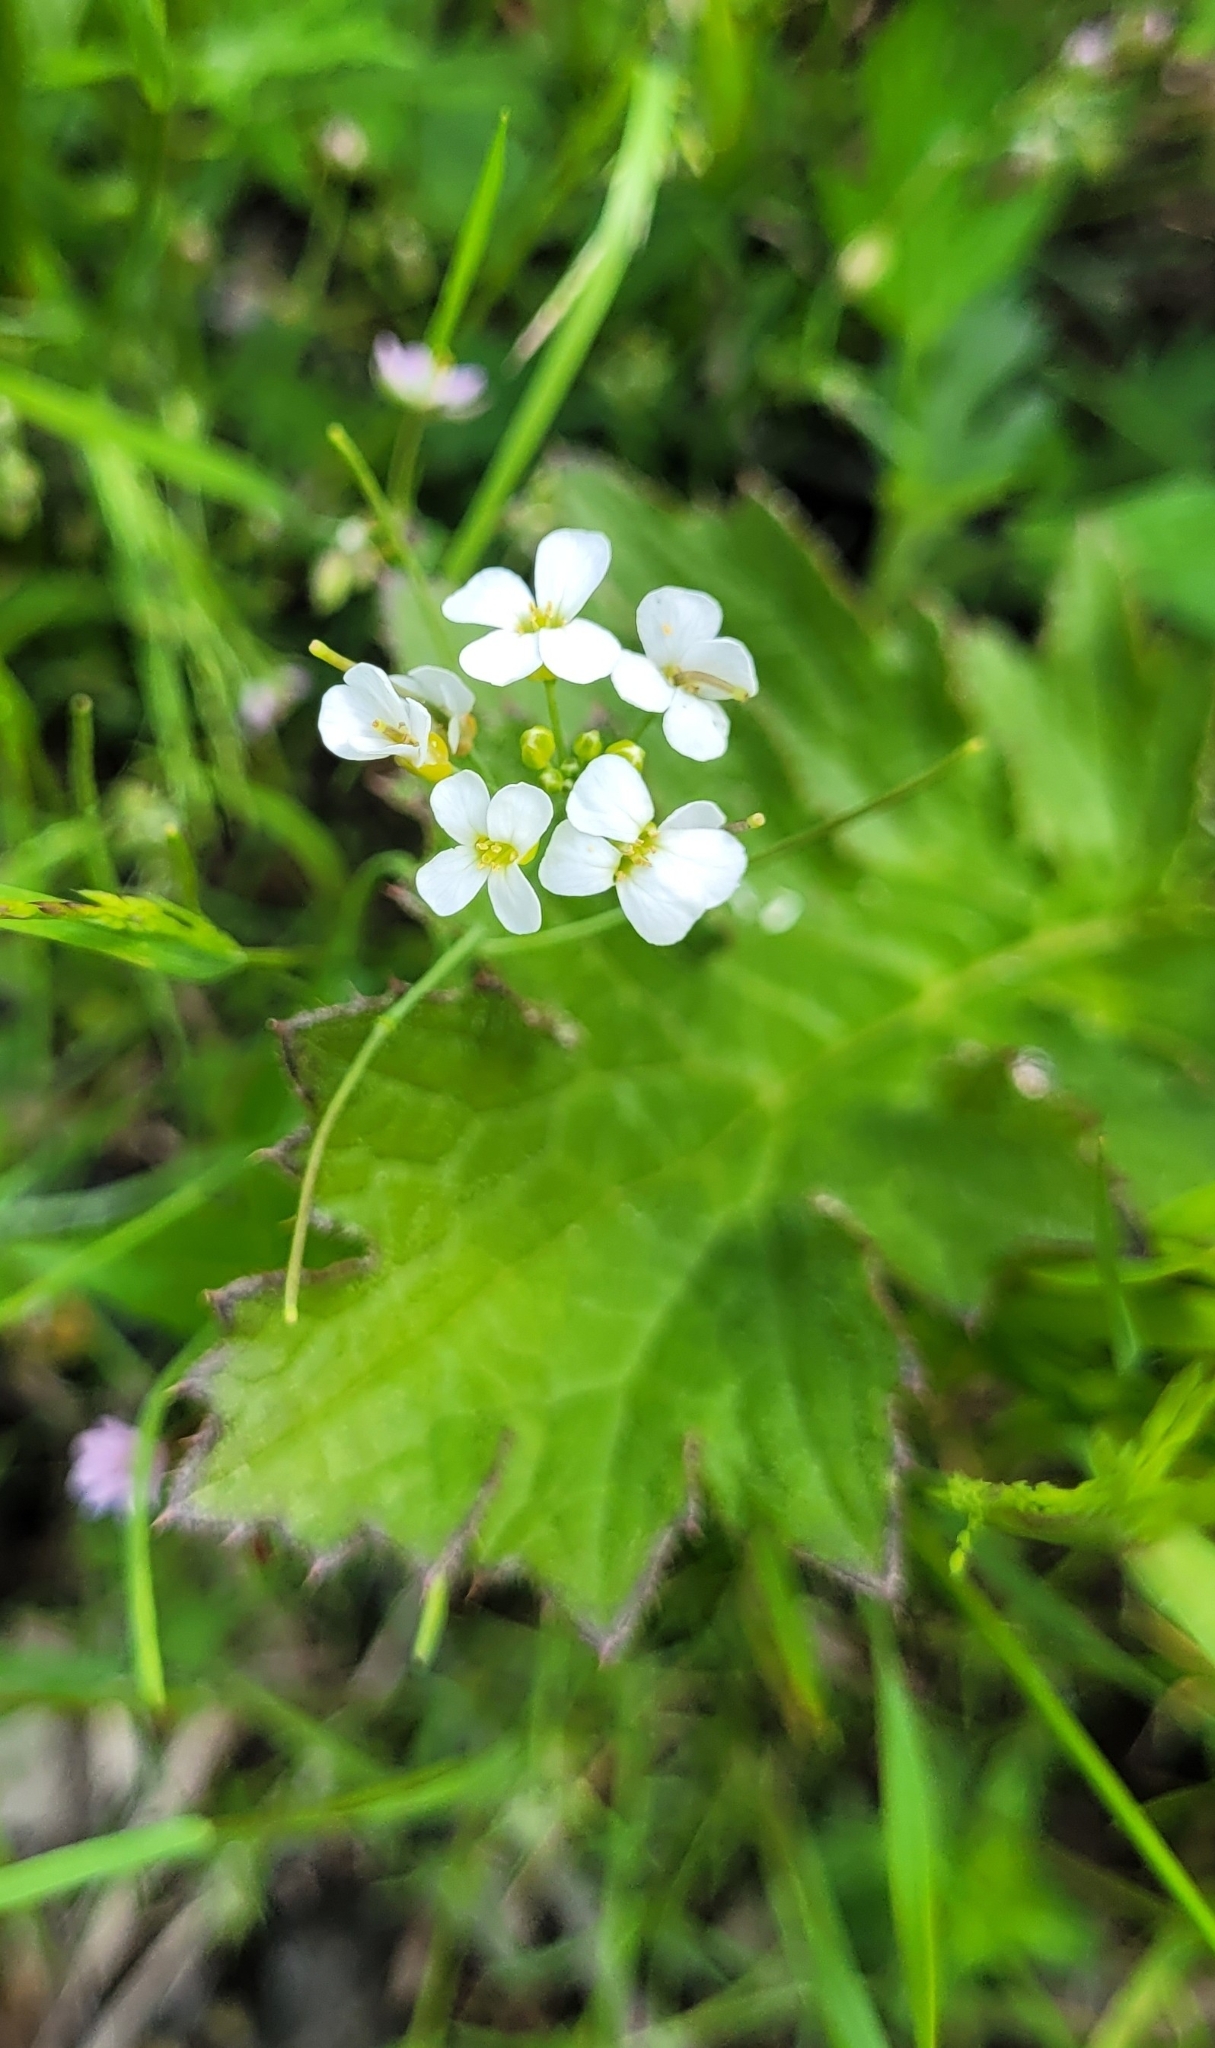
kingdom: Plantae
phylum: Tracheophyta
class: Magnoliopsida
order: Brassicales
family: Brassicaceae
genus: Arabidopsis
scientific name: Arabidopsis lyrata
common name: Lyrate rockcress
